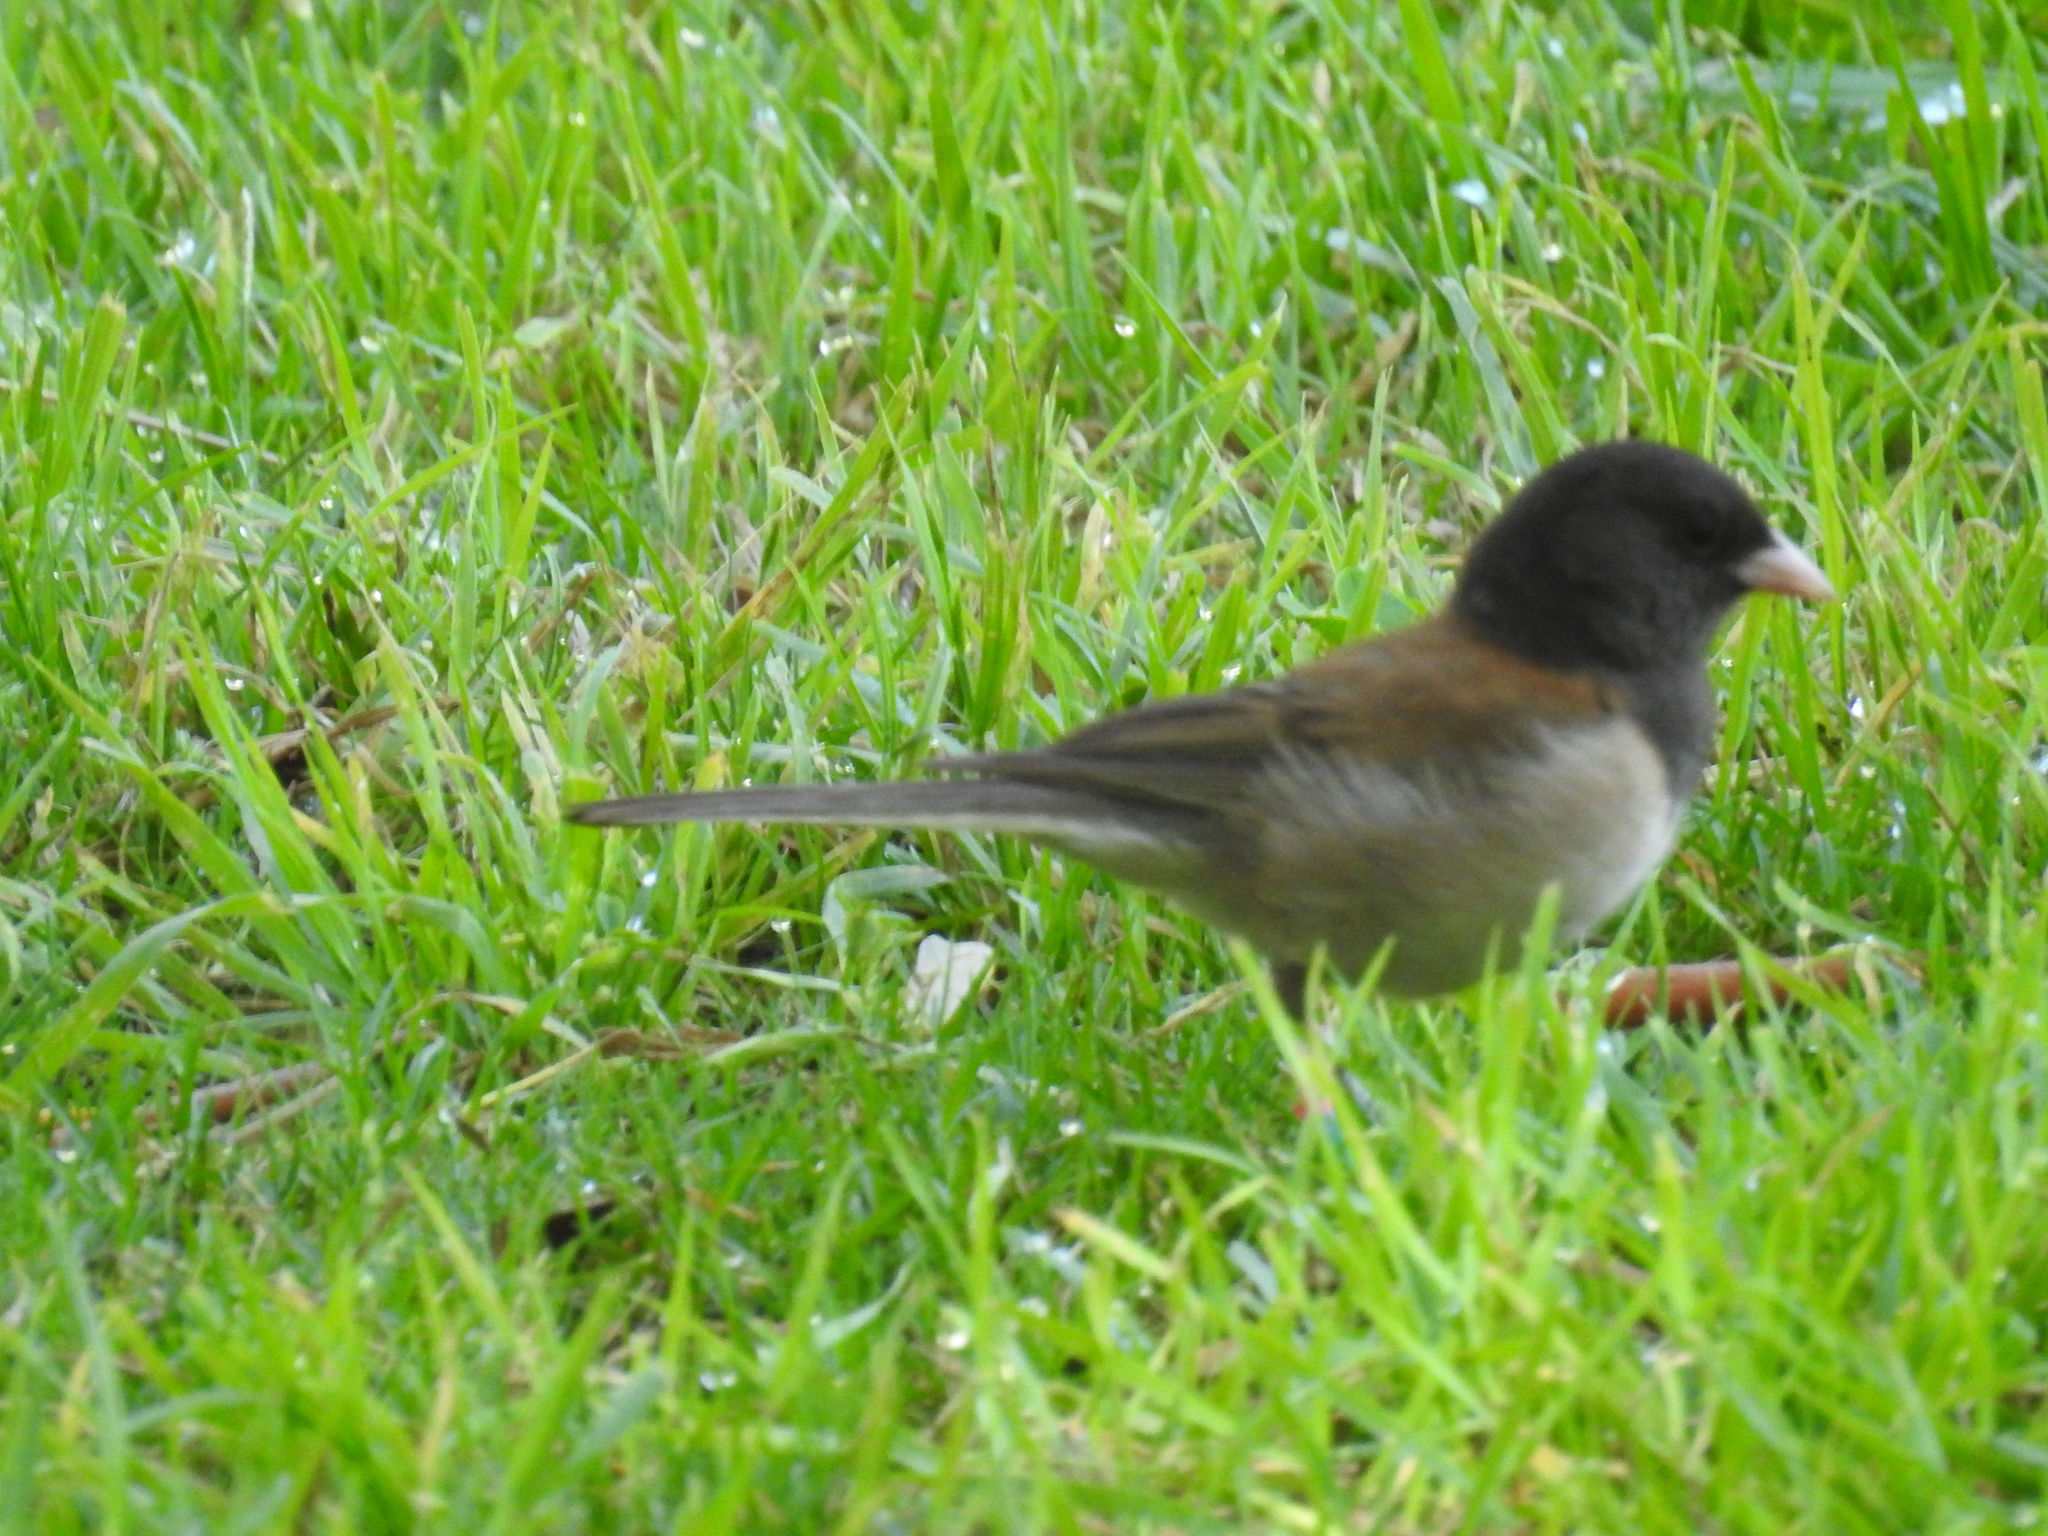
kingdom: Animalia
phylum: Chordata
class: Aves
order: Passeriformes
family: Passerellidae
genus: Junco
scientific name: Junco hyemalis
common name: Dark-eyed junco
